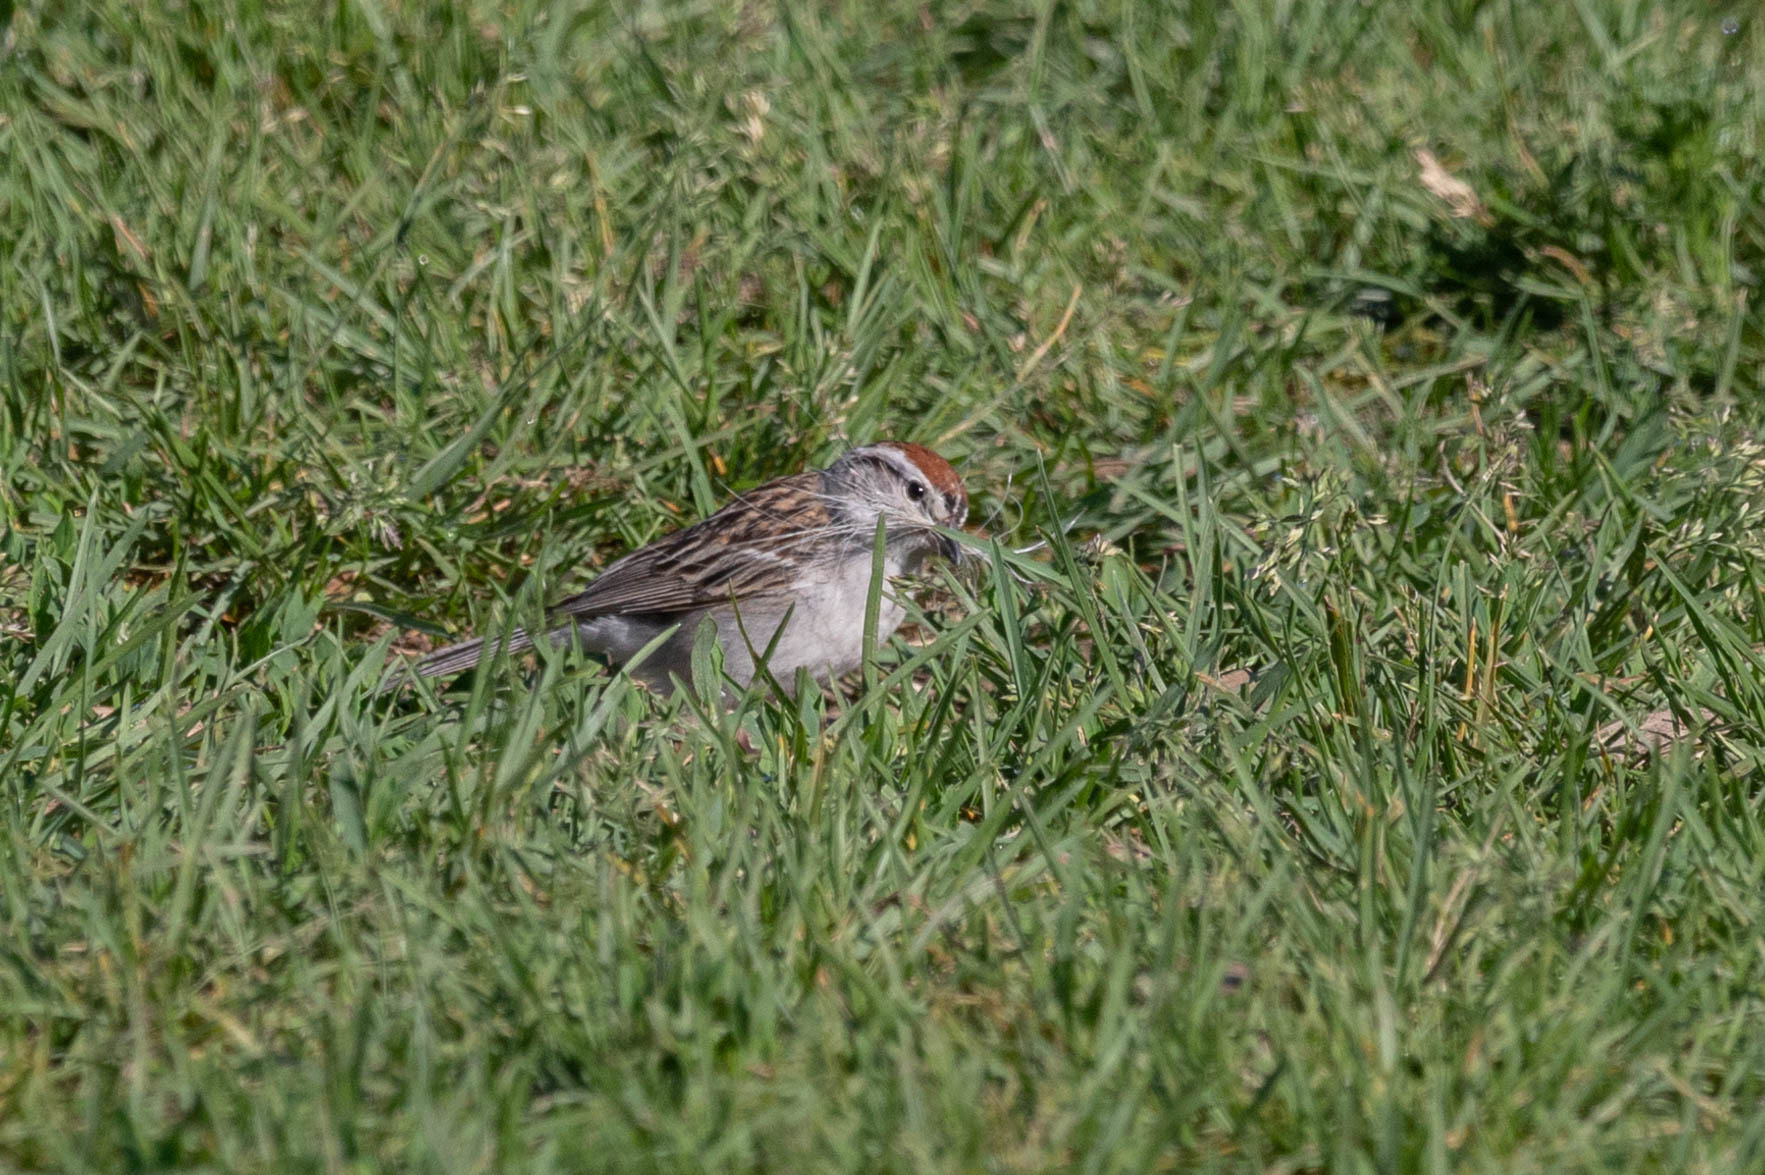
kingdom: Animalia
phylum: Chordata
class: Aves
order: Passeriformes
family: Passerellidae
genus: Spizella
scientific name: Spizella passerina
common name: Chipping sparrow
